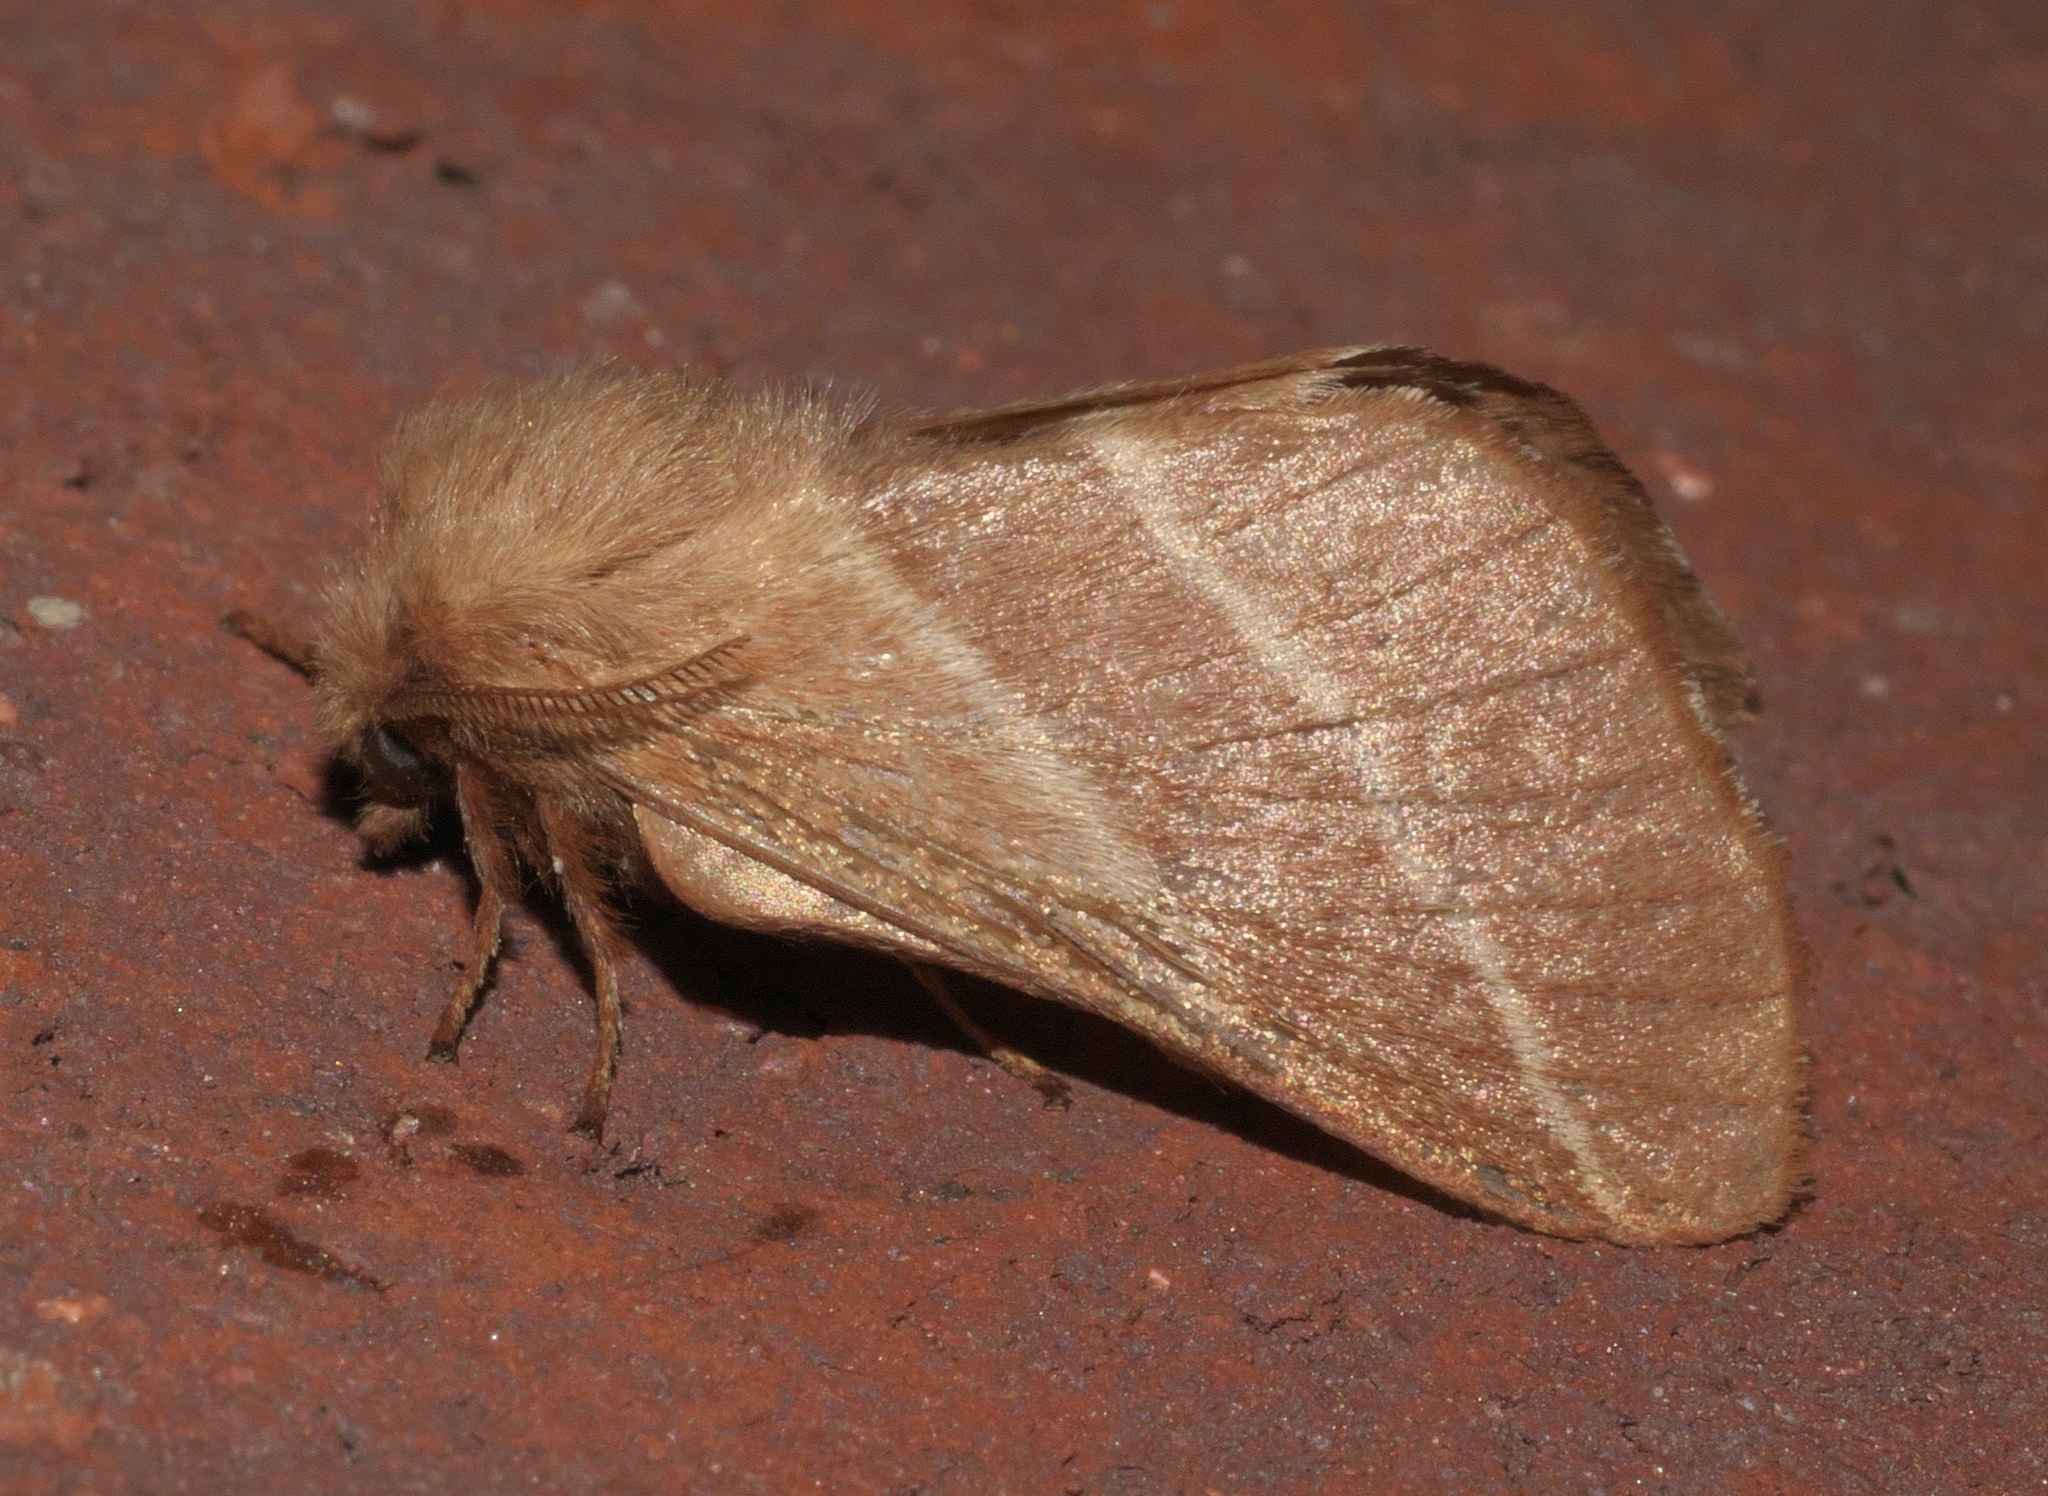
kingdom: Animalia
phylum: Arthropoda
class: Insecta
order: Lepidoptera
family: Lasiocampidae
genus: Malacosoma
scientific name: Malacosoma americana
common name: Eastern tent caterpillar moth
